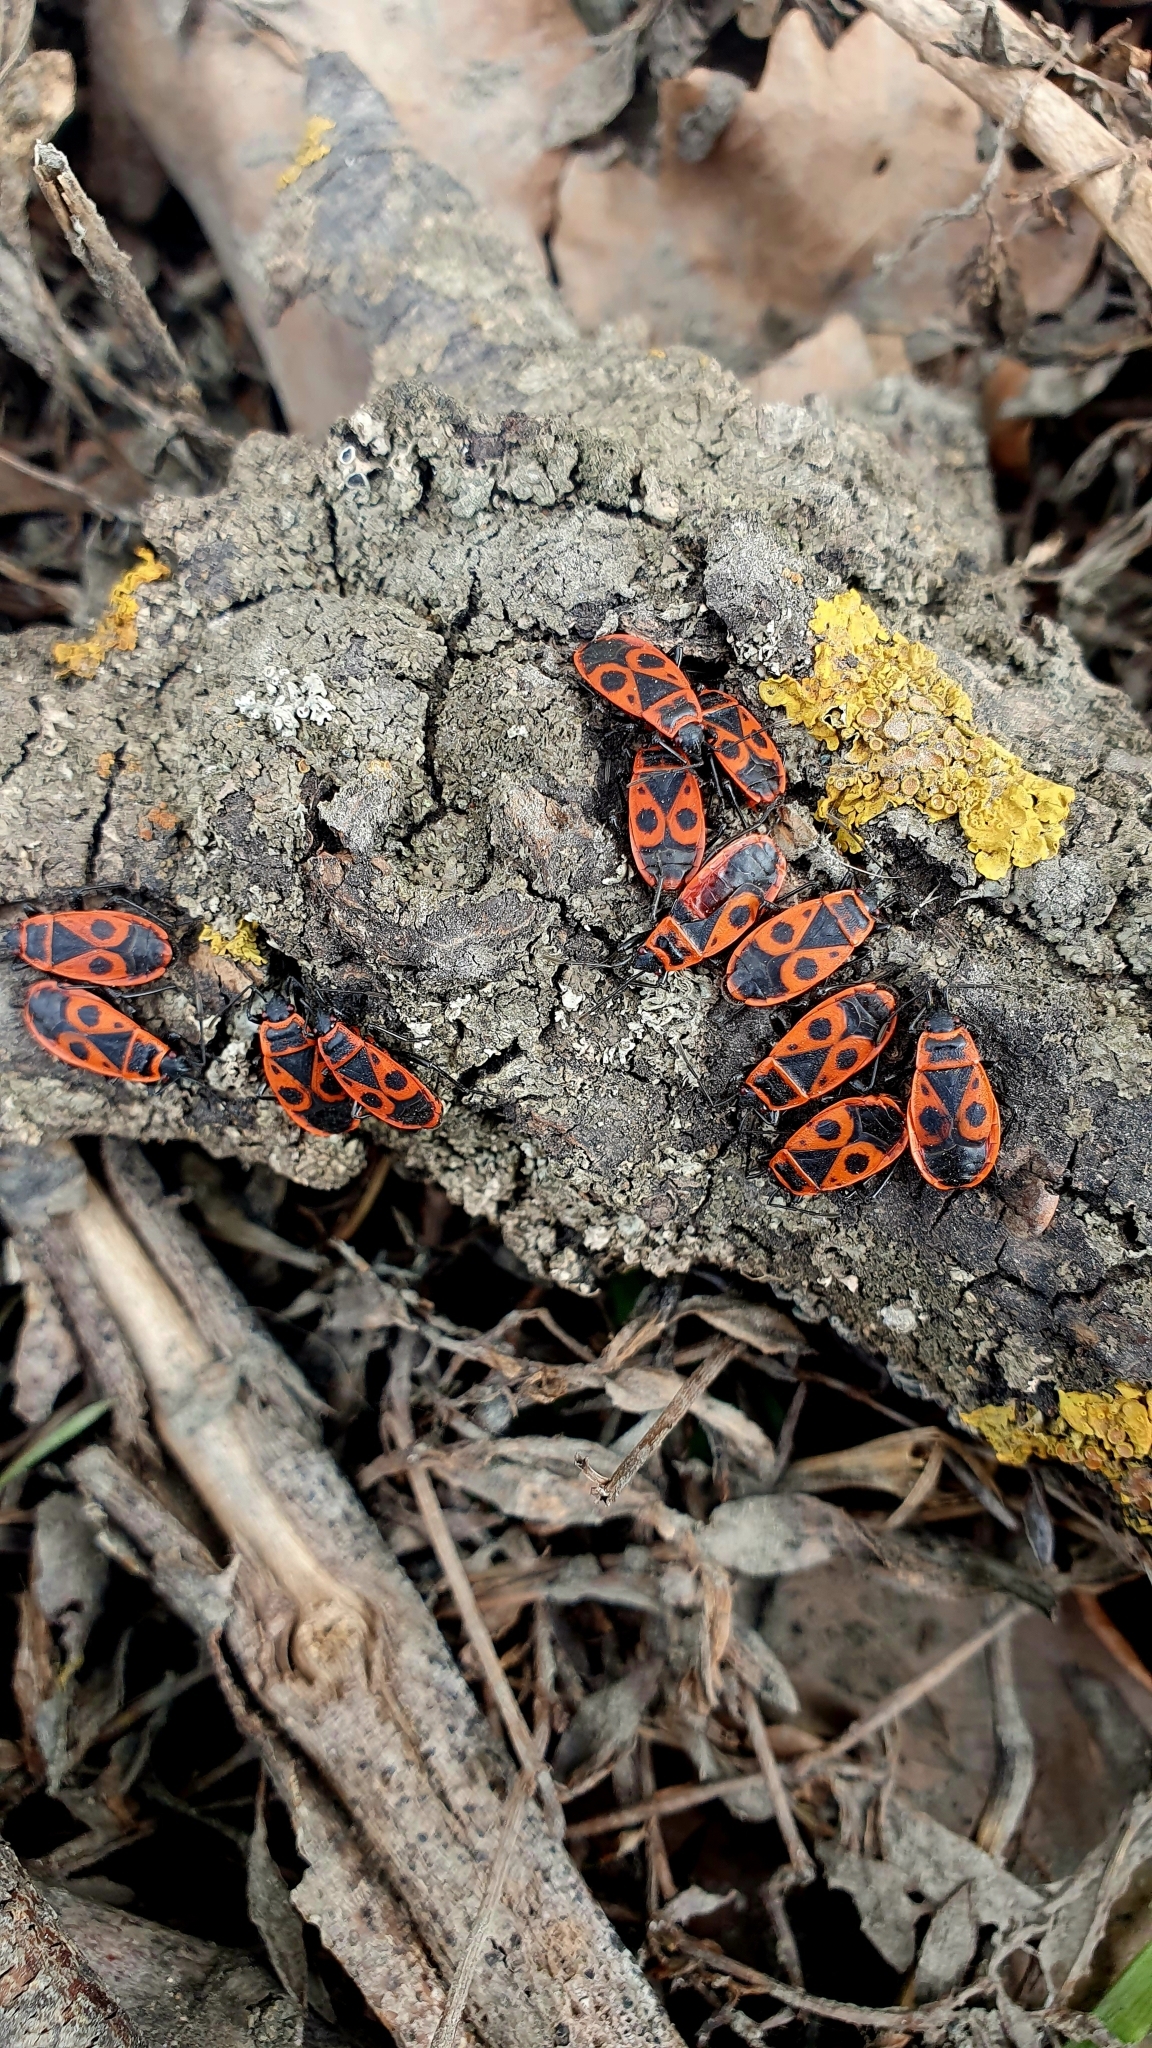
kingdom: Animalia
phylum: Arthropoda
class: Insecta
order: Hemiptera
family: Pyrrhocoridae
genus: Pyrrhocoris
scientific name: Pyrrhocoris apterus
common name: Firebug
